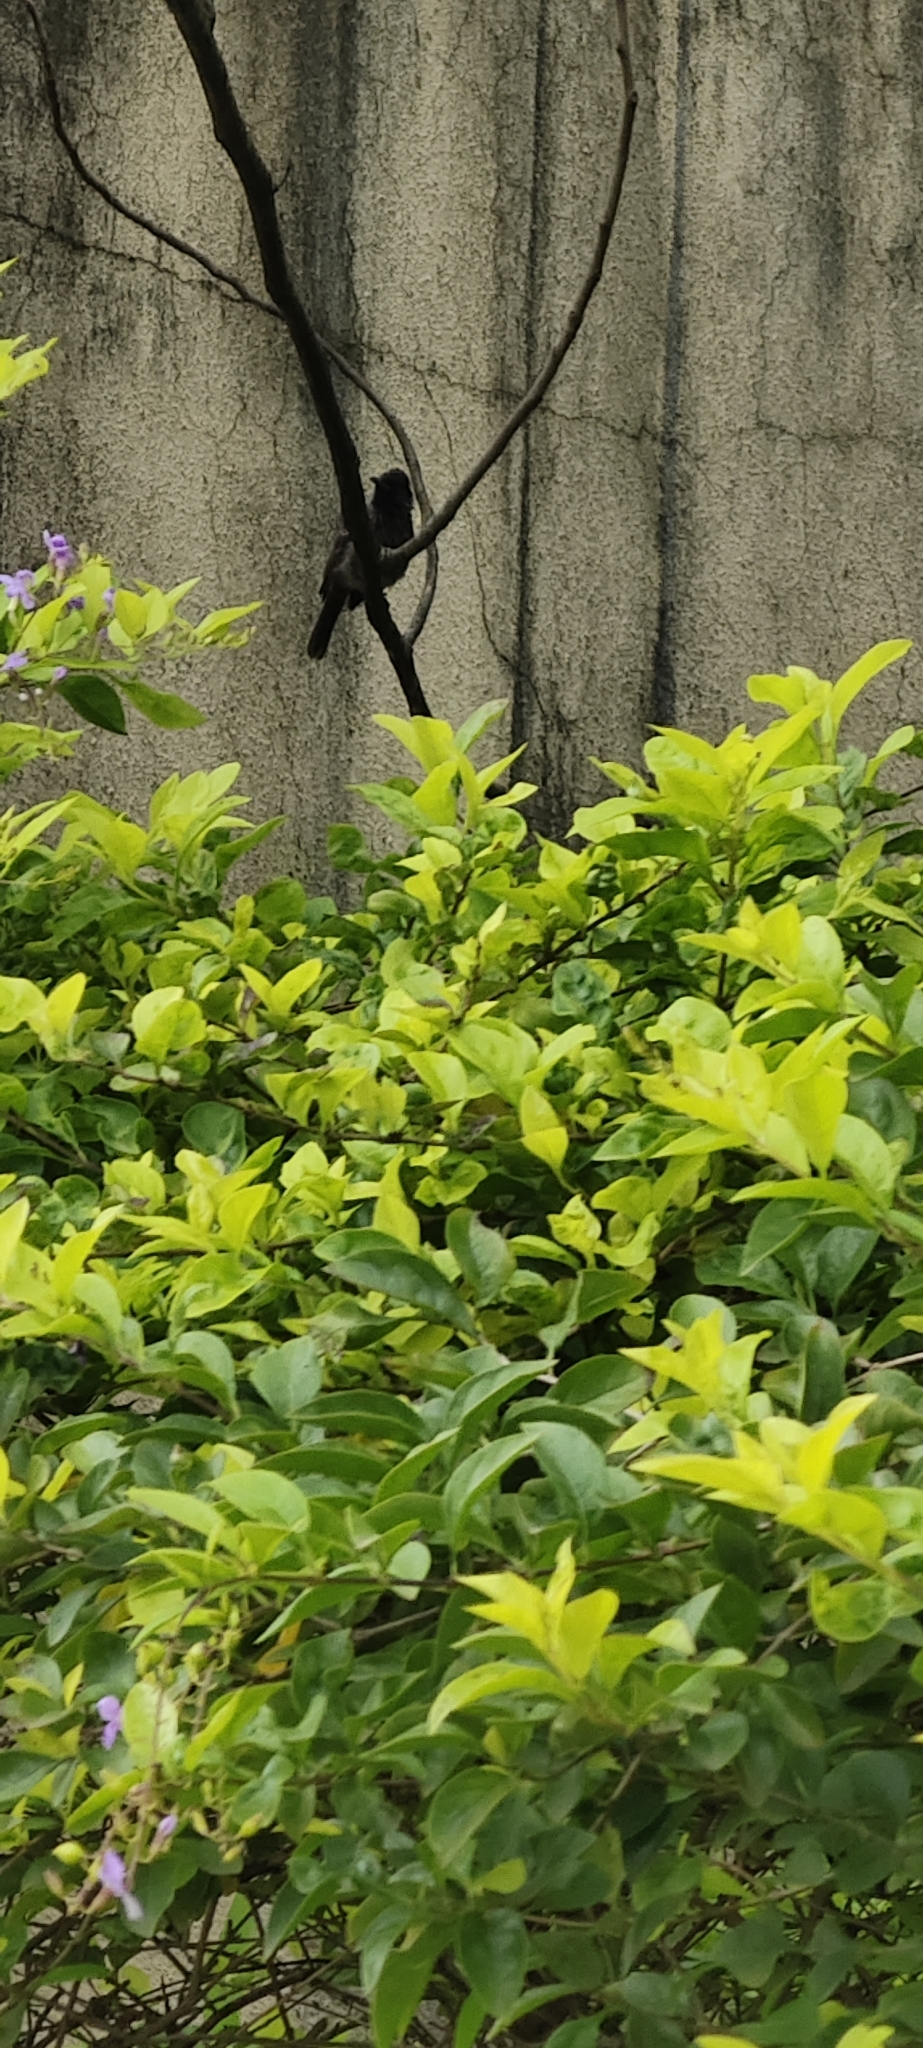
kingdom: Animalia
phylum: Chordata
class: Aves
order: Passeriformes
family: Pycnonotidae
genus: Pycnonotus
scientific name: Pycnonotus cafer
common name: Red-vented bulbul
